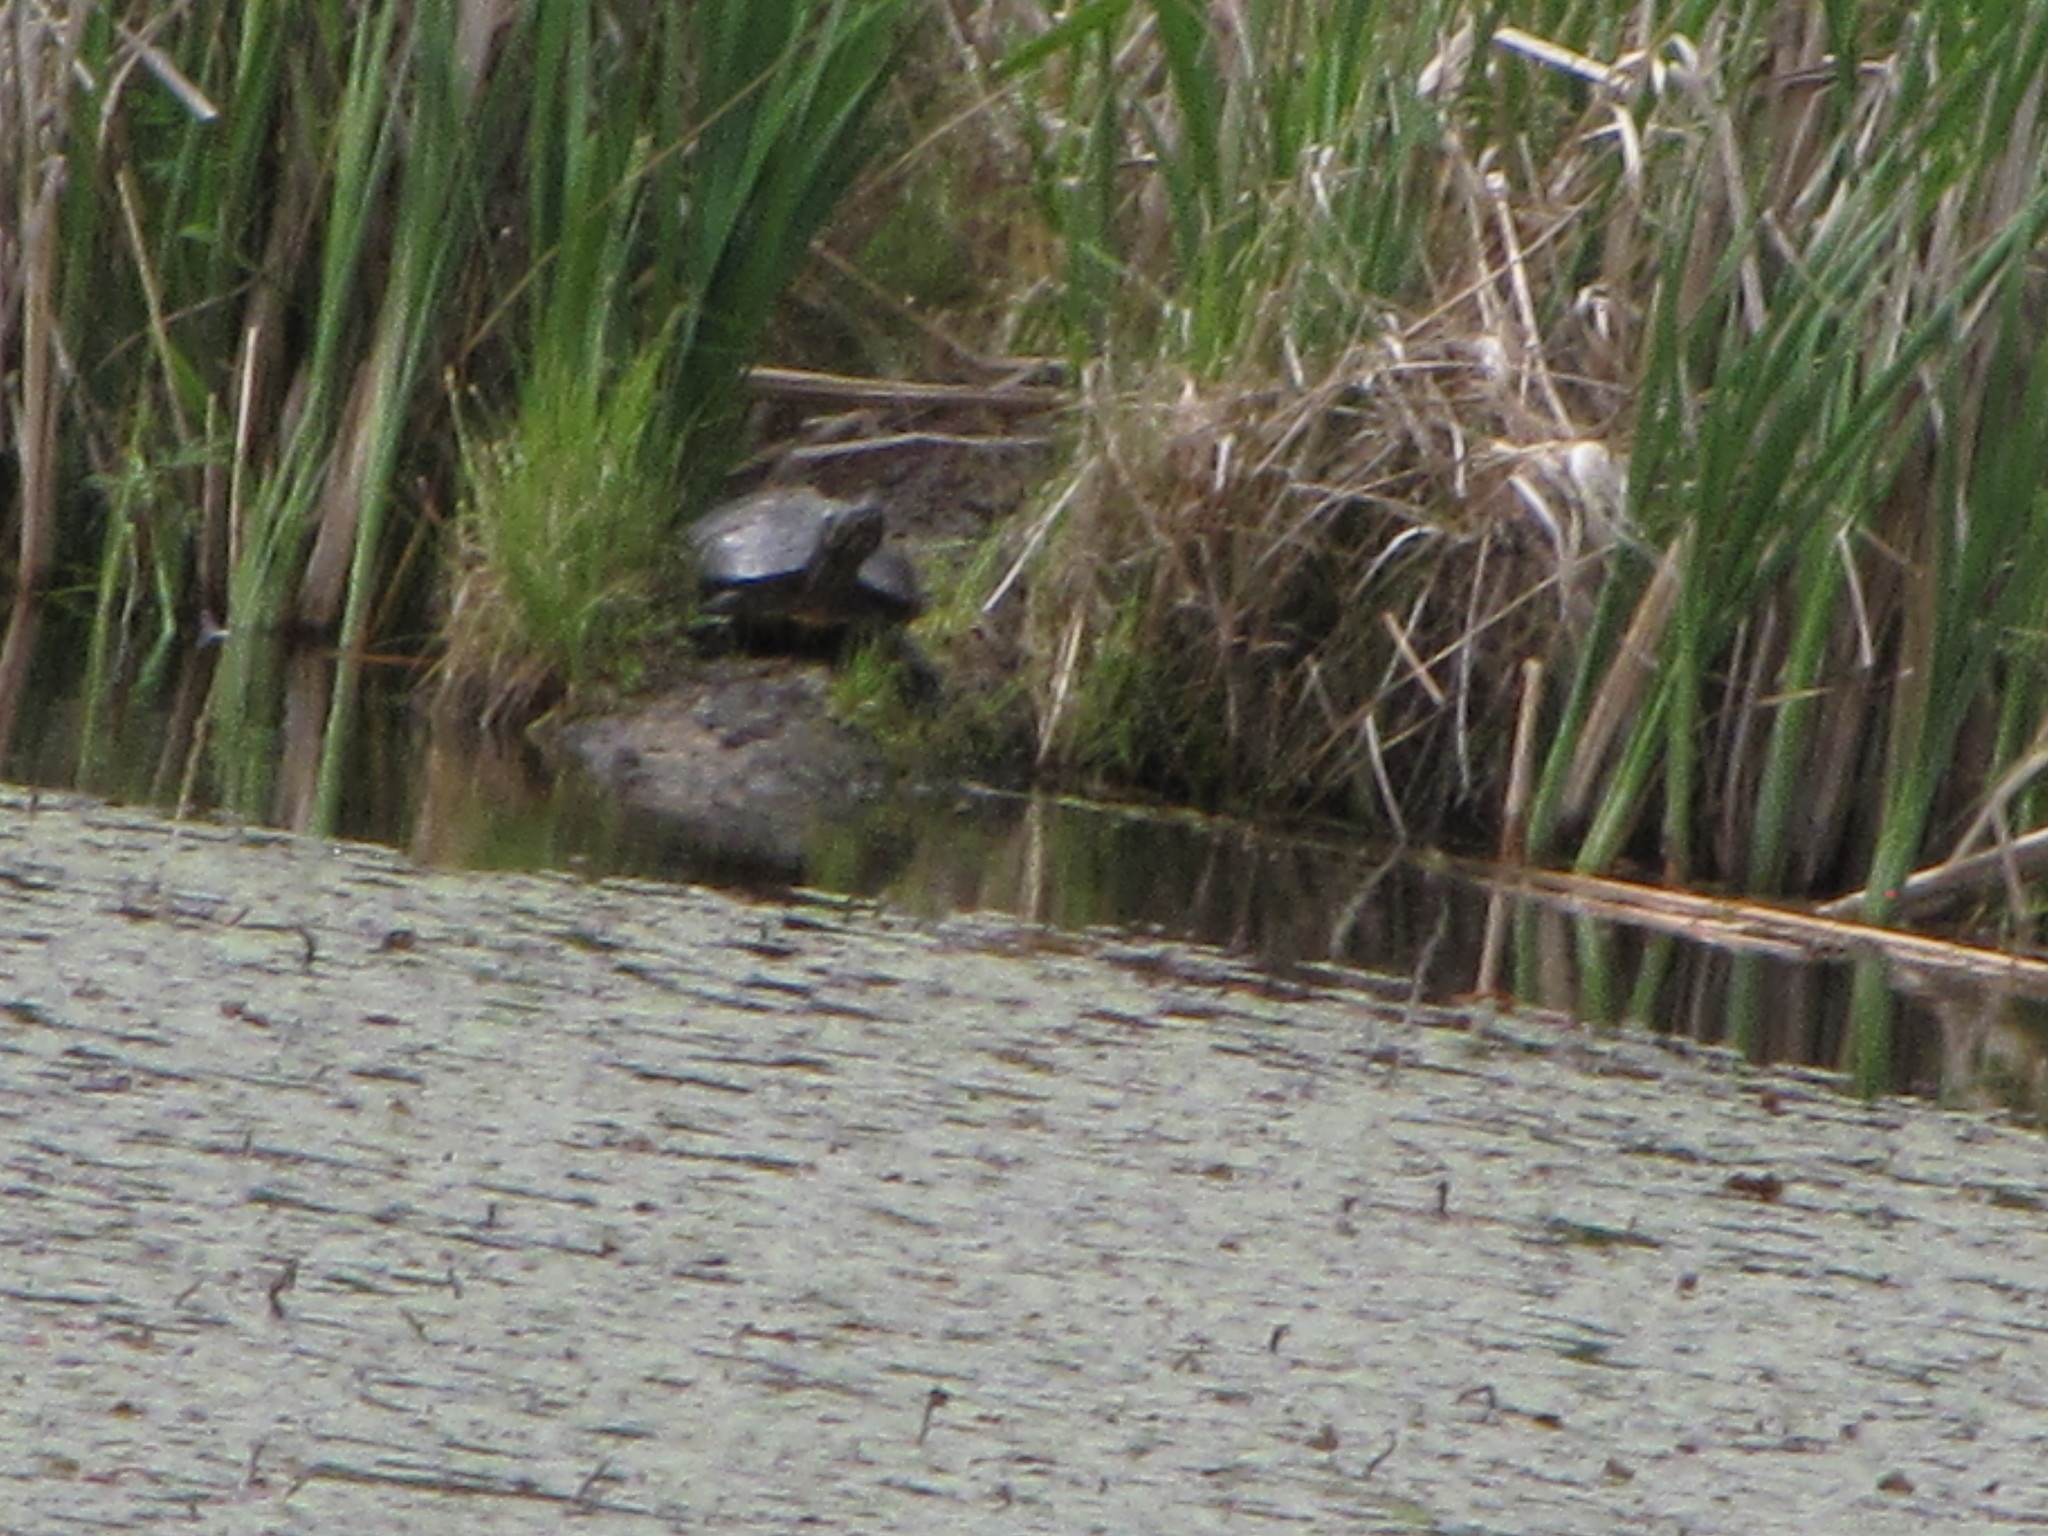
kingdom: Animalia
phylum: Chordata
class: Testudines
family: Emydidae
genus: Trachemys
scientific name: Trachemys scripta
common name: Slider
